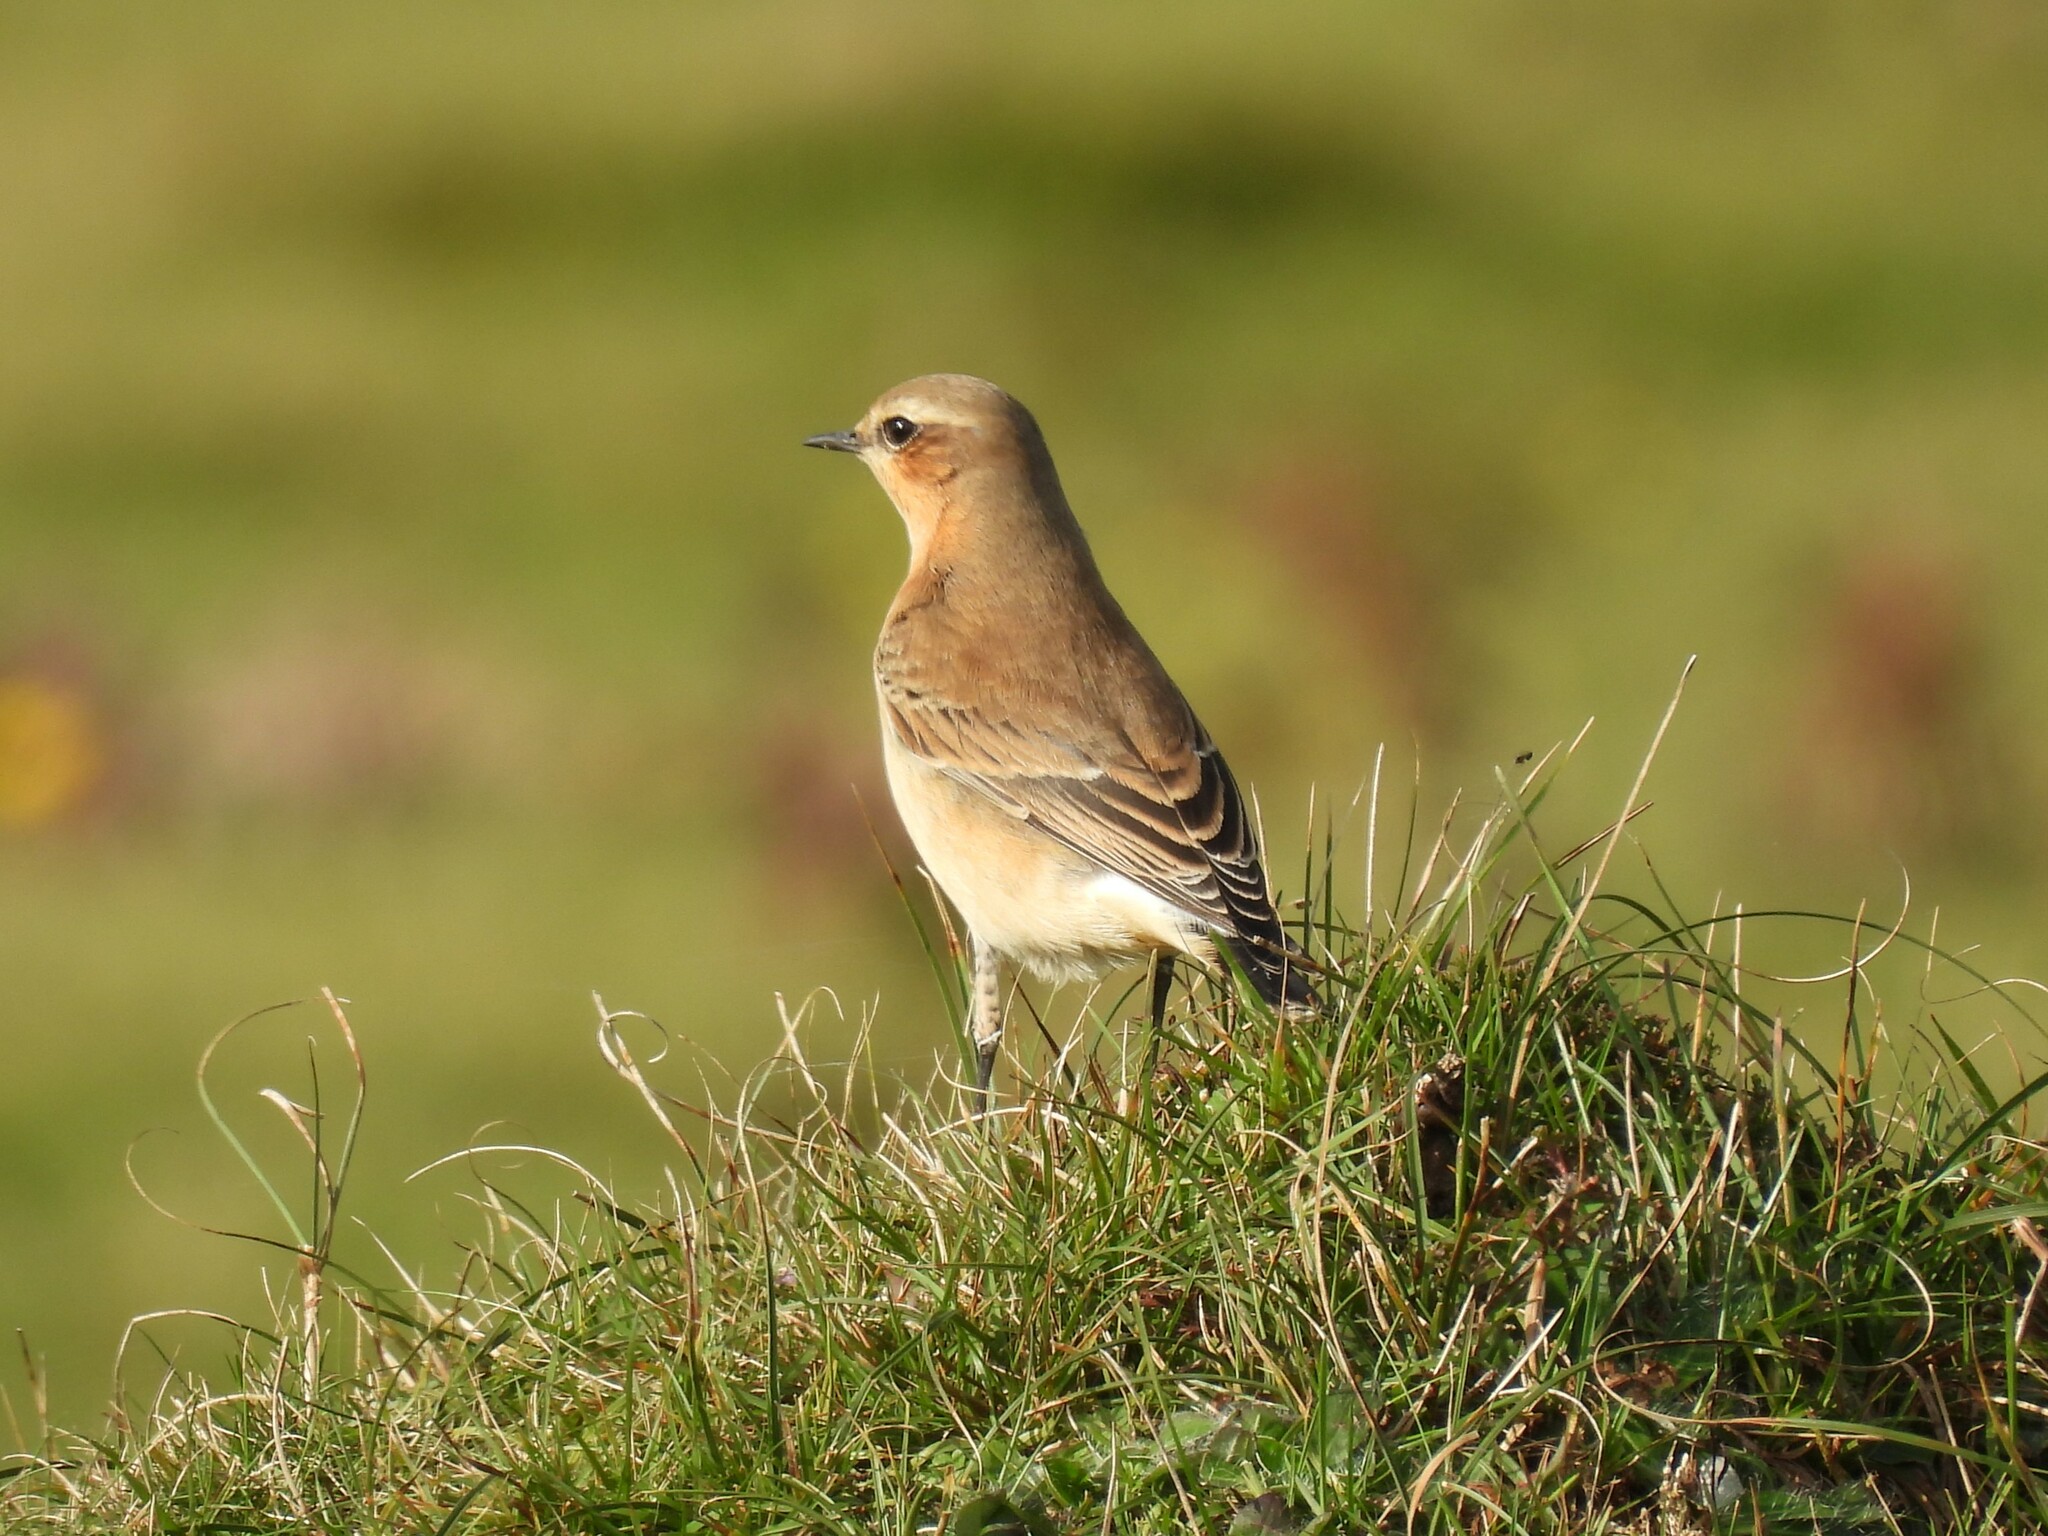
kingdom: Animalia
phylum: Chordata
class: Aves
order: Passeriformes
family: Muscicapidae
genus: Oenanthe
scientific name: Oenanthe oenanthe
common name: Northern wheatear
